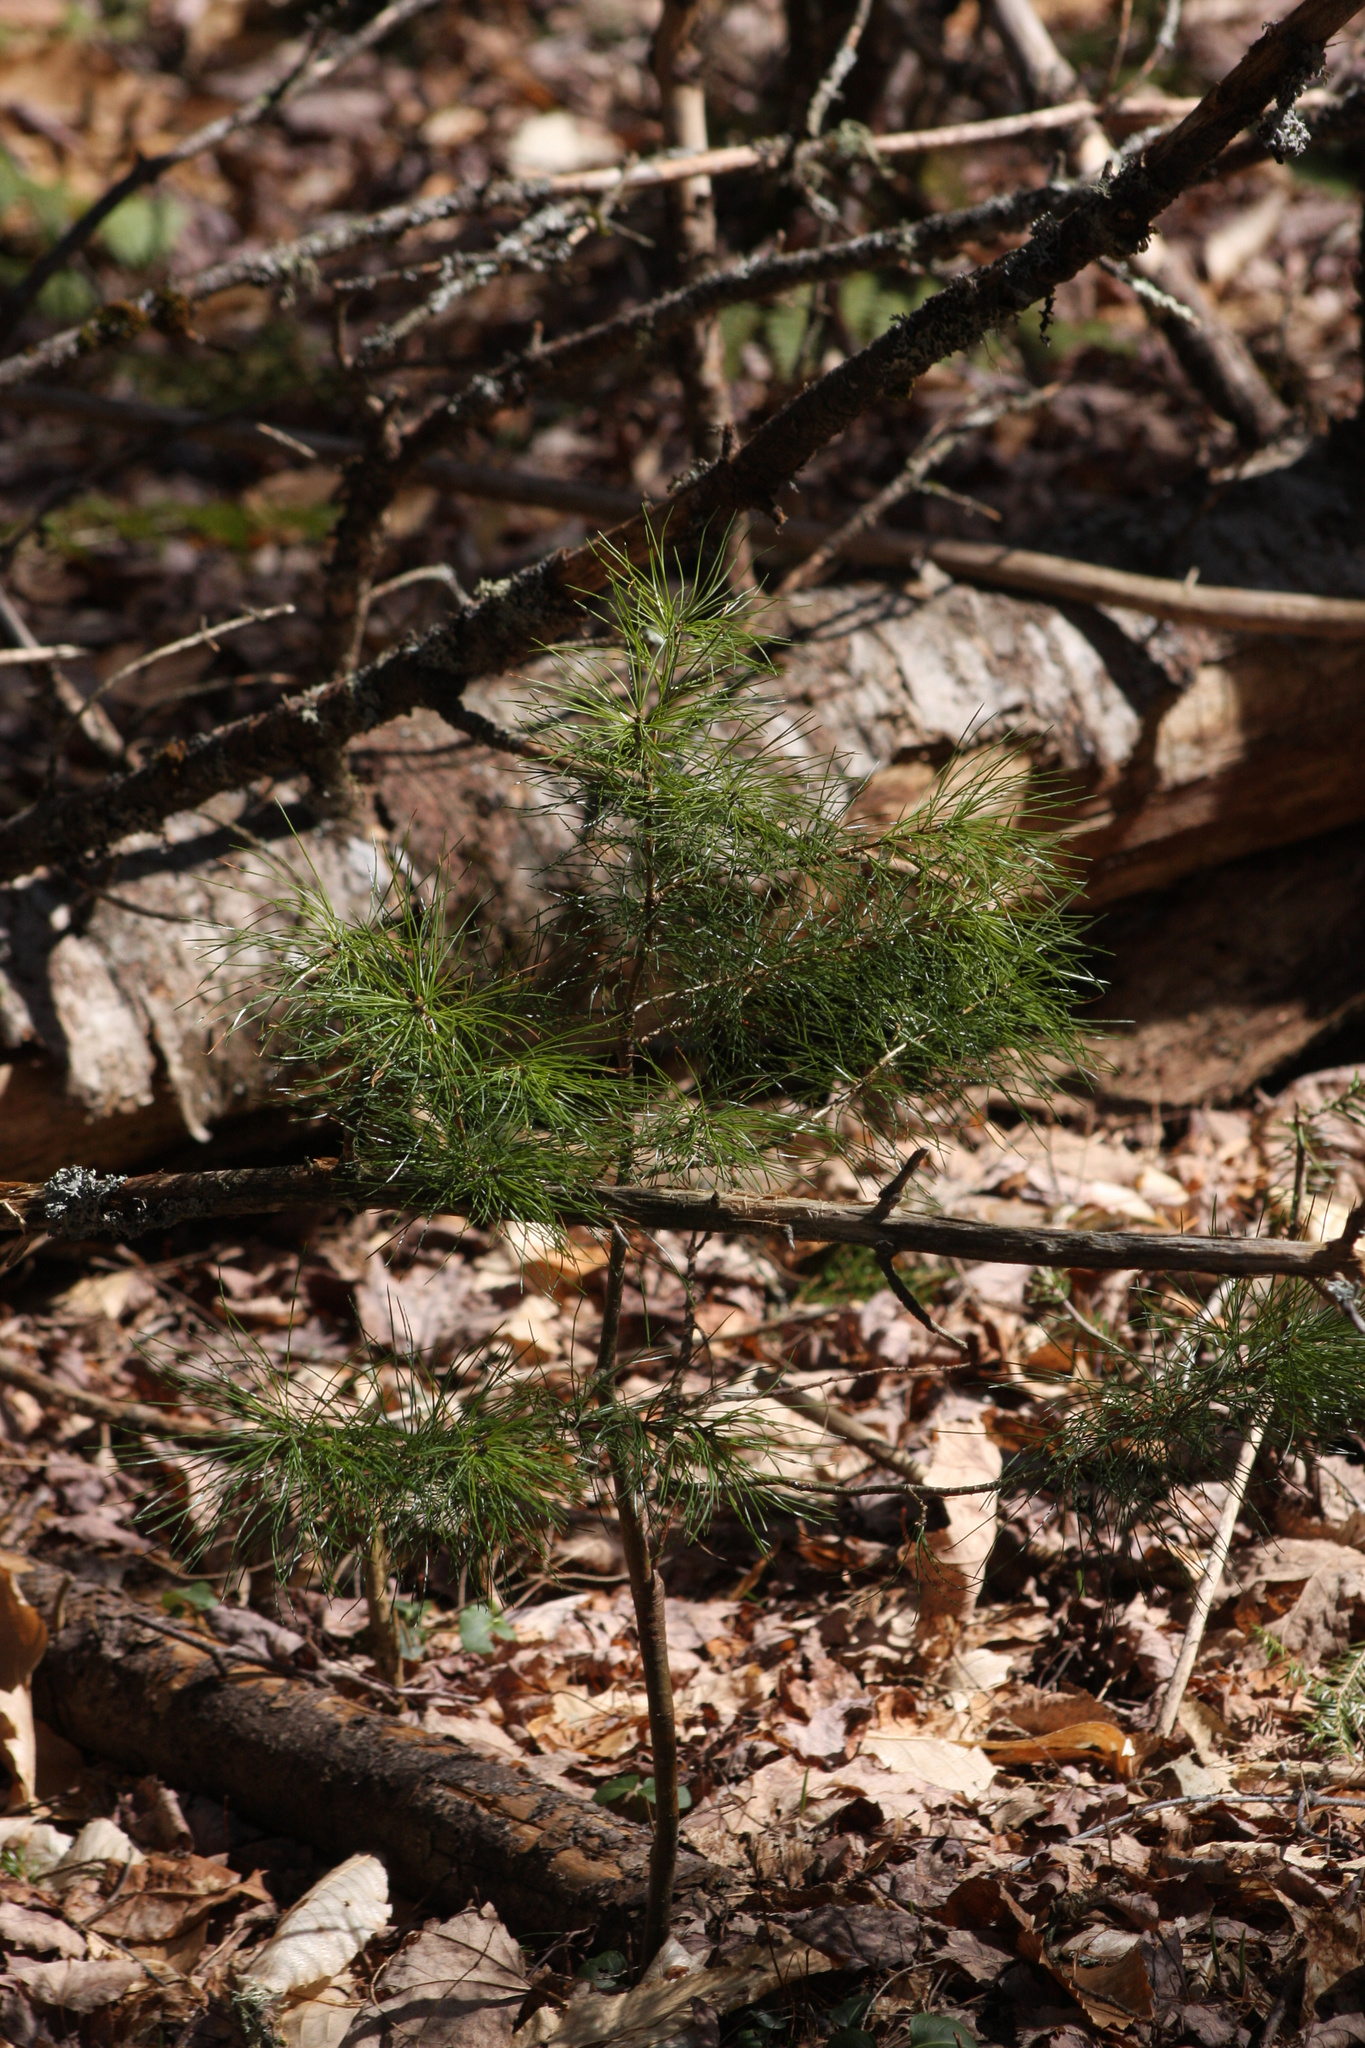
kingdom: Plantae
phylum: Tracheophyta
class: Pinopsida
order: Pinales
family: Pinaceae
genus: Pinus
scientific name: Pinus strobus
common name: Weymouth pine
